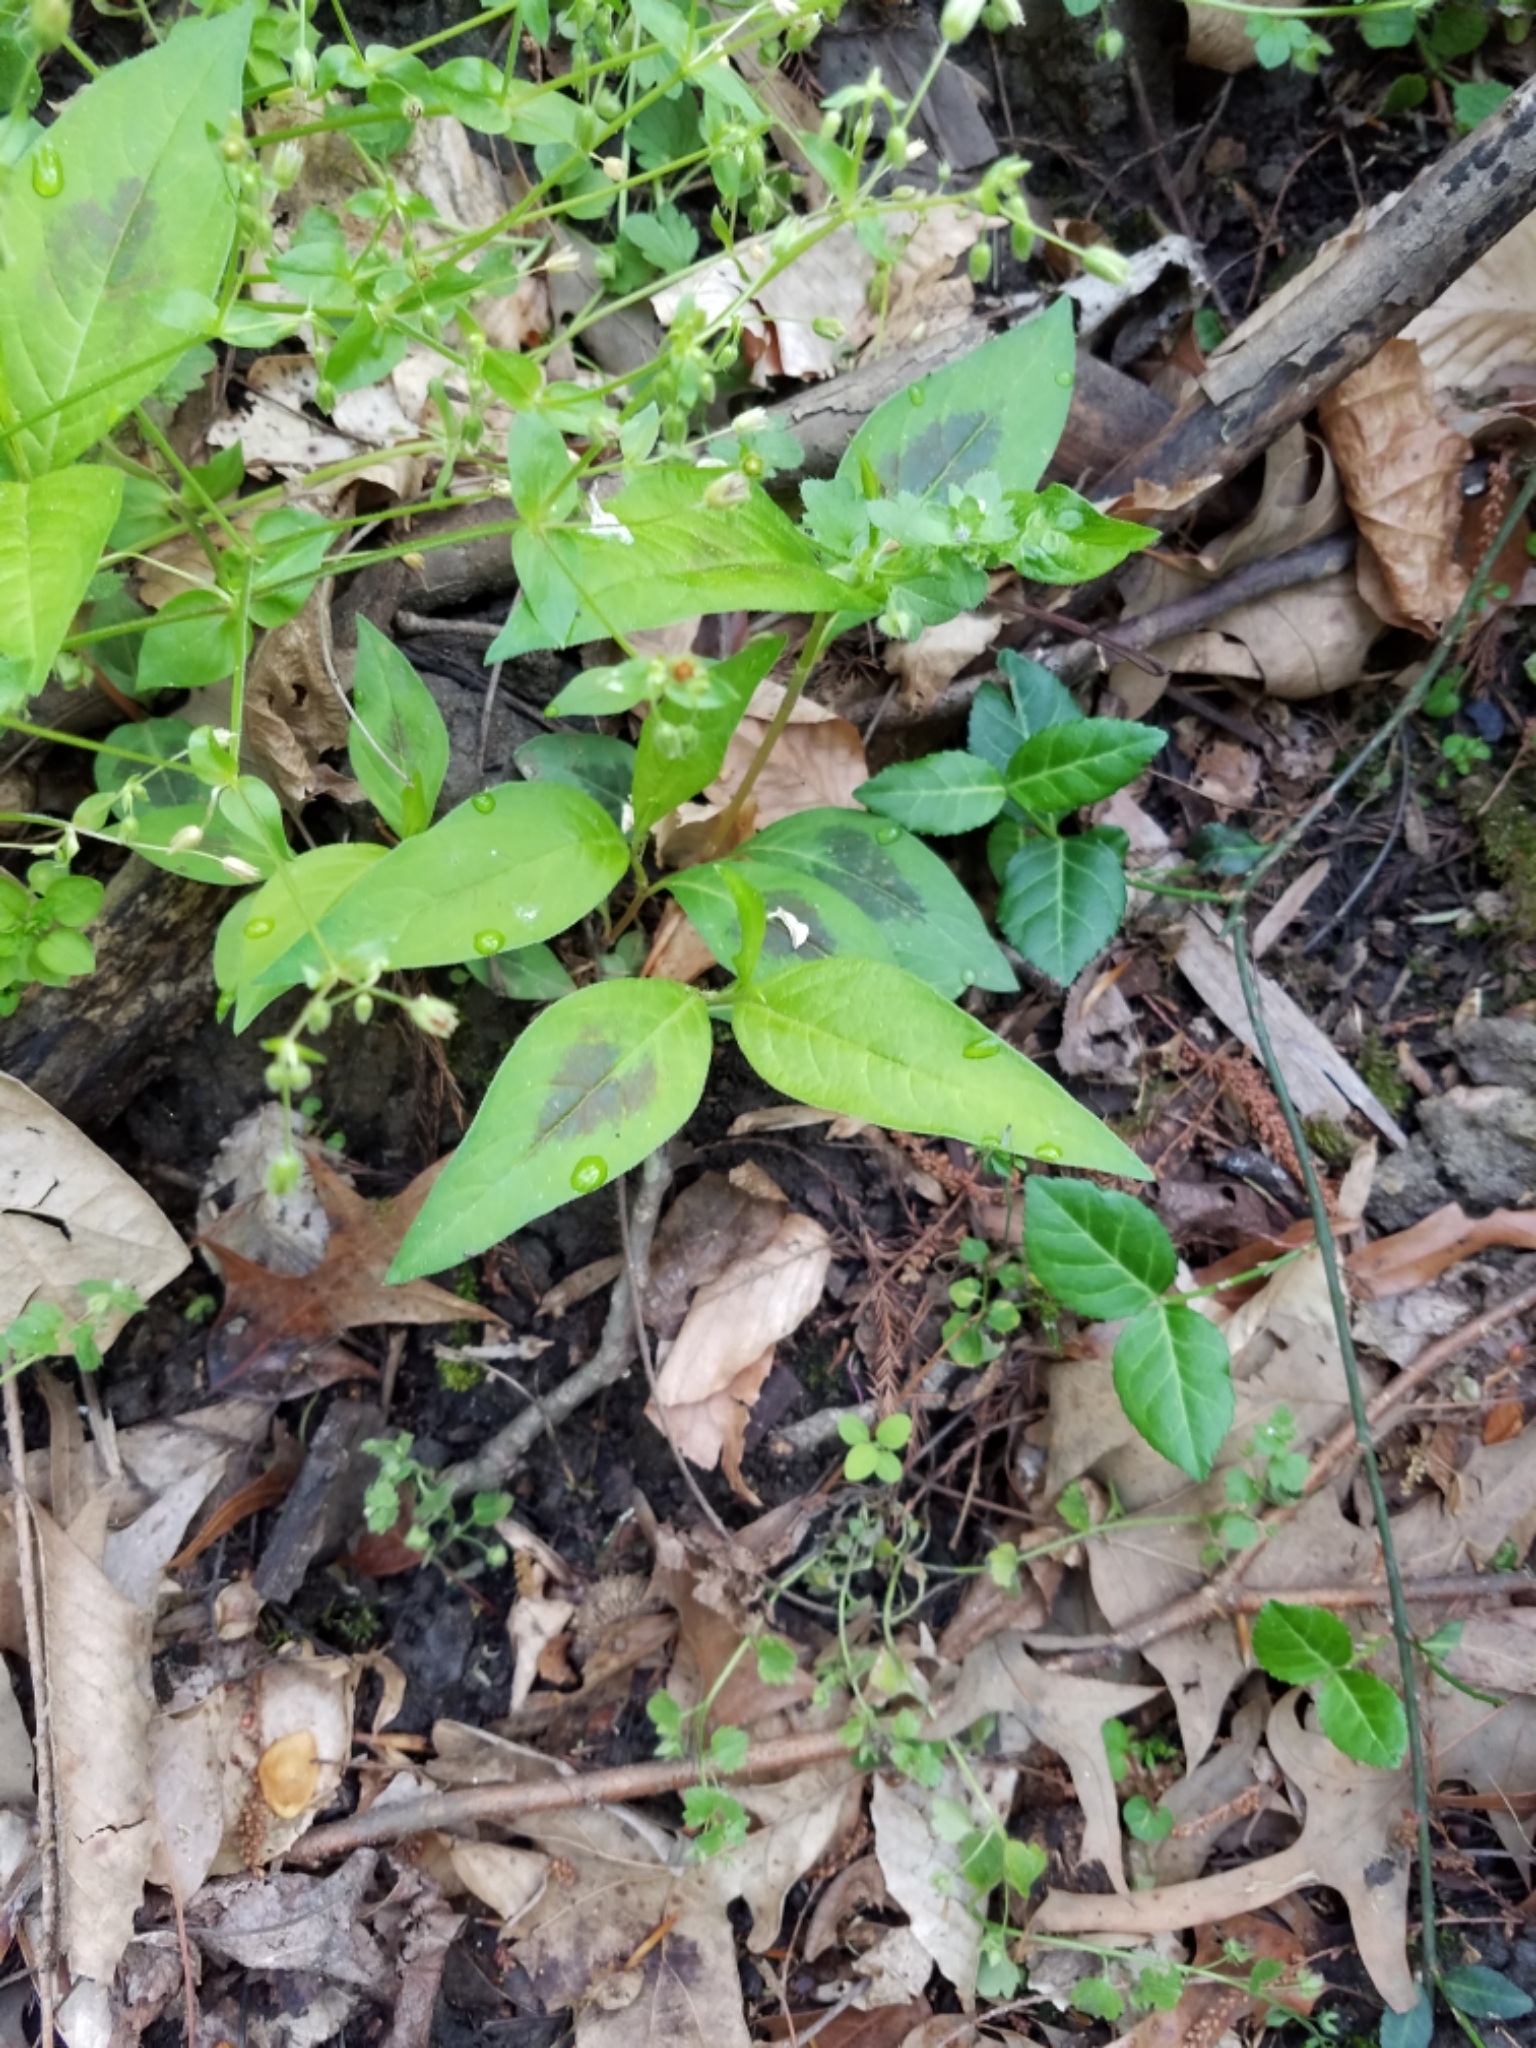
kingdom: Plantae
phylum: Tracheophyta
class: Magnoliopsida
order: Caryophyllales
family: Polygonaceae
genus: Persicaria
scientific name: Persicaria virginiana
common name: Jumpseed
